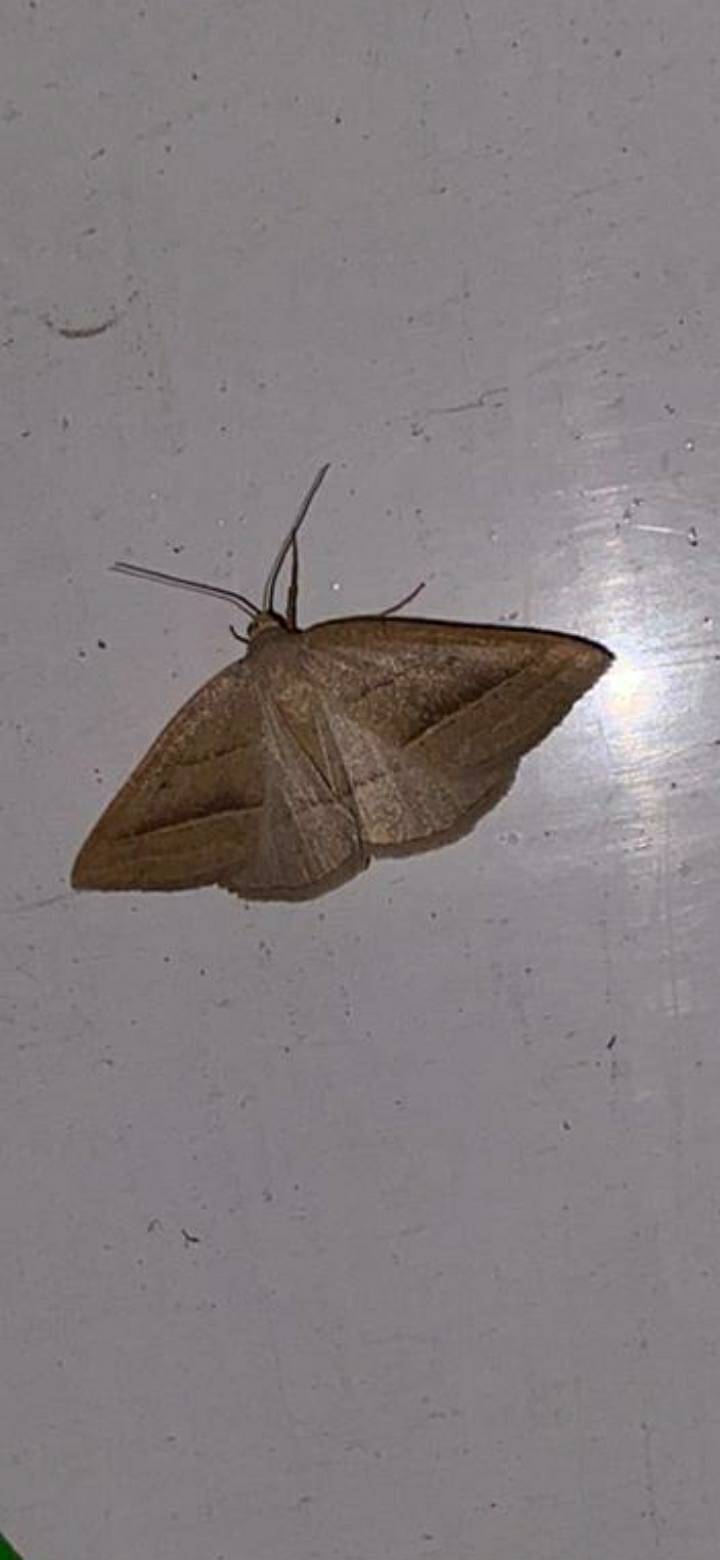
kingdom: Animalia
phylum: Arthropoda
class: Insecta
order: Lepidoptera
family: Pterophoridae
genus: Pterophorus
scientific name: Pterophorus Petrophora chlorosata
